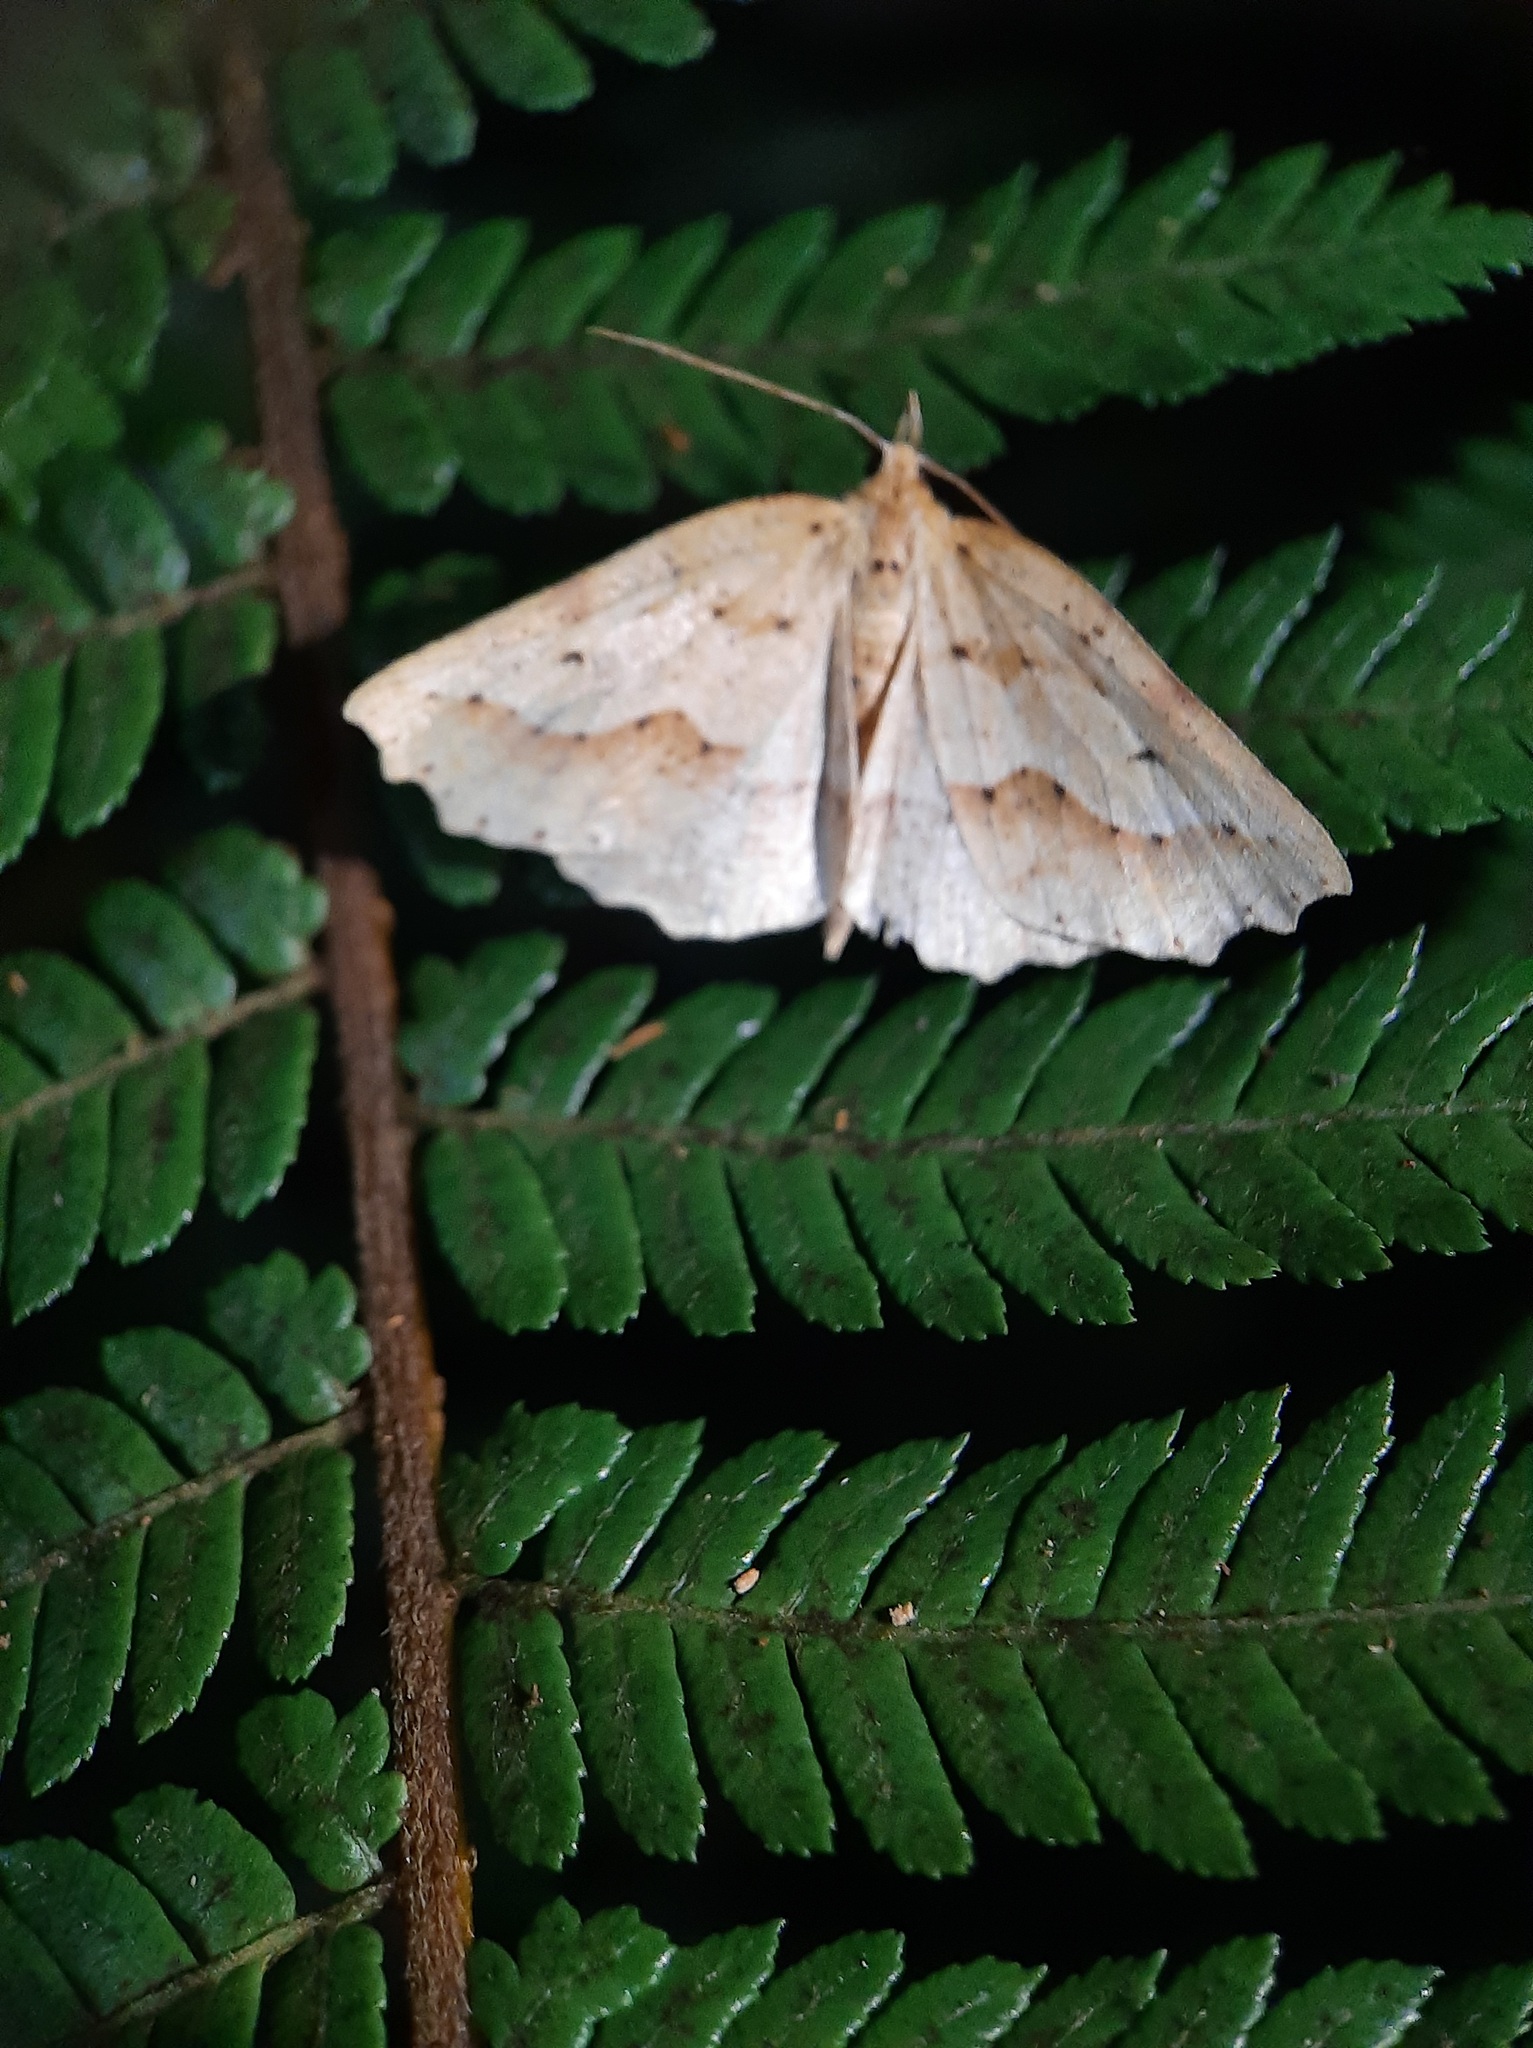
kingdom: Animalia
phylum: Arthropoda
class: Insecta
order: Lepidoptera
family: Geometridae
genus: Ischalis
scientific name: Ischalis variabilis
